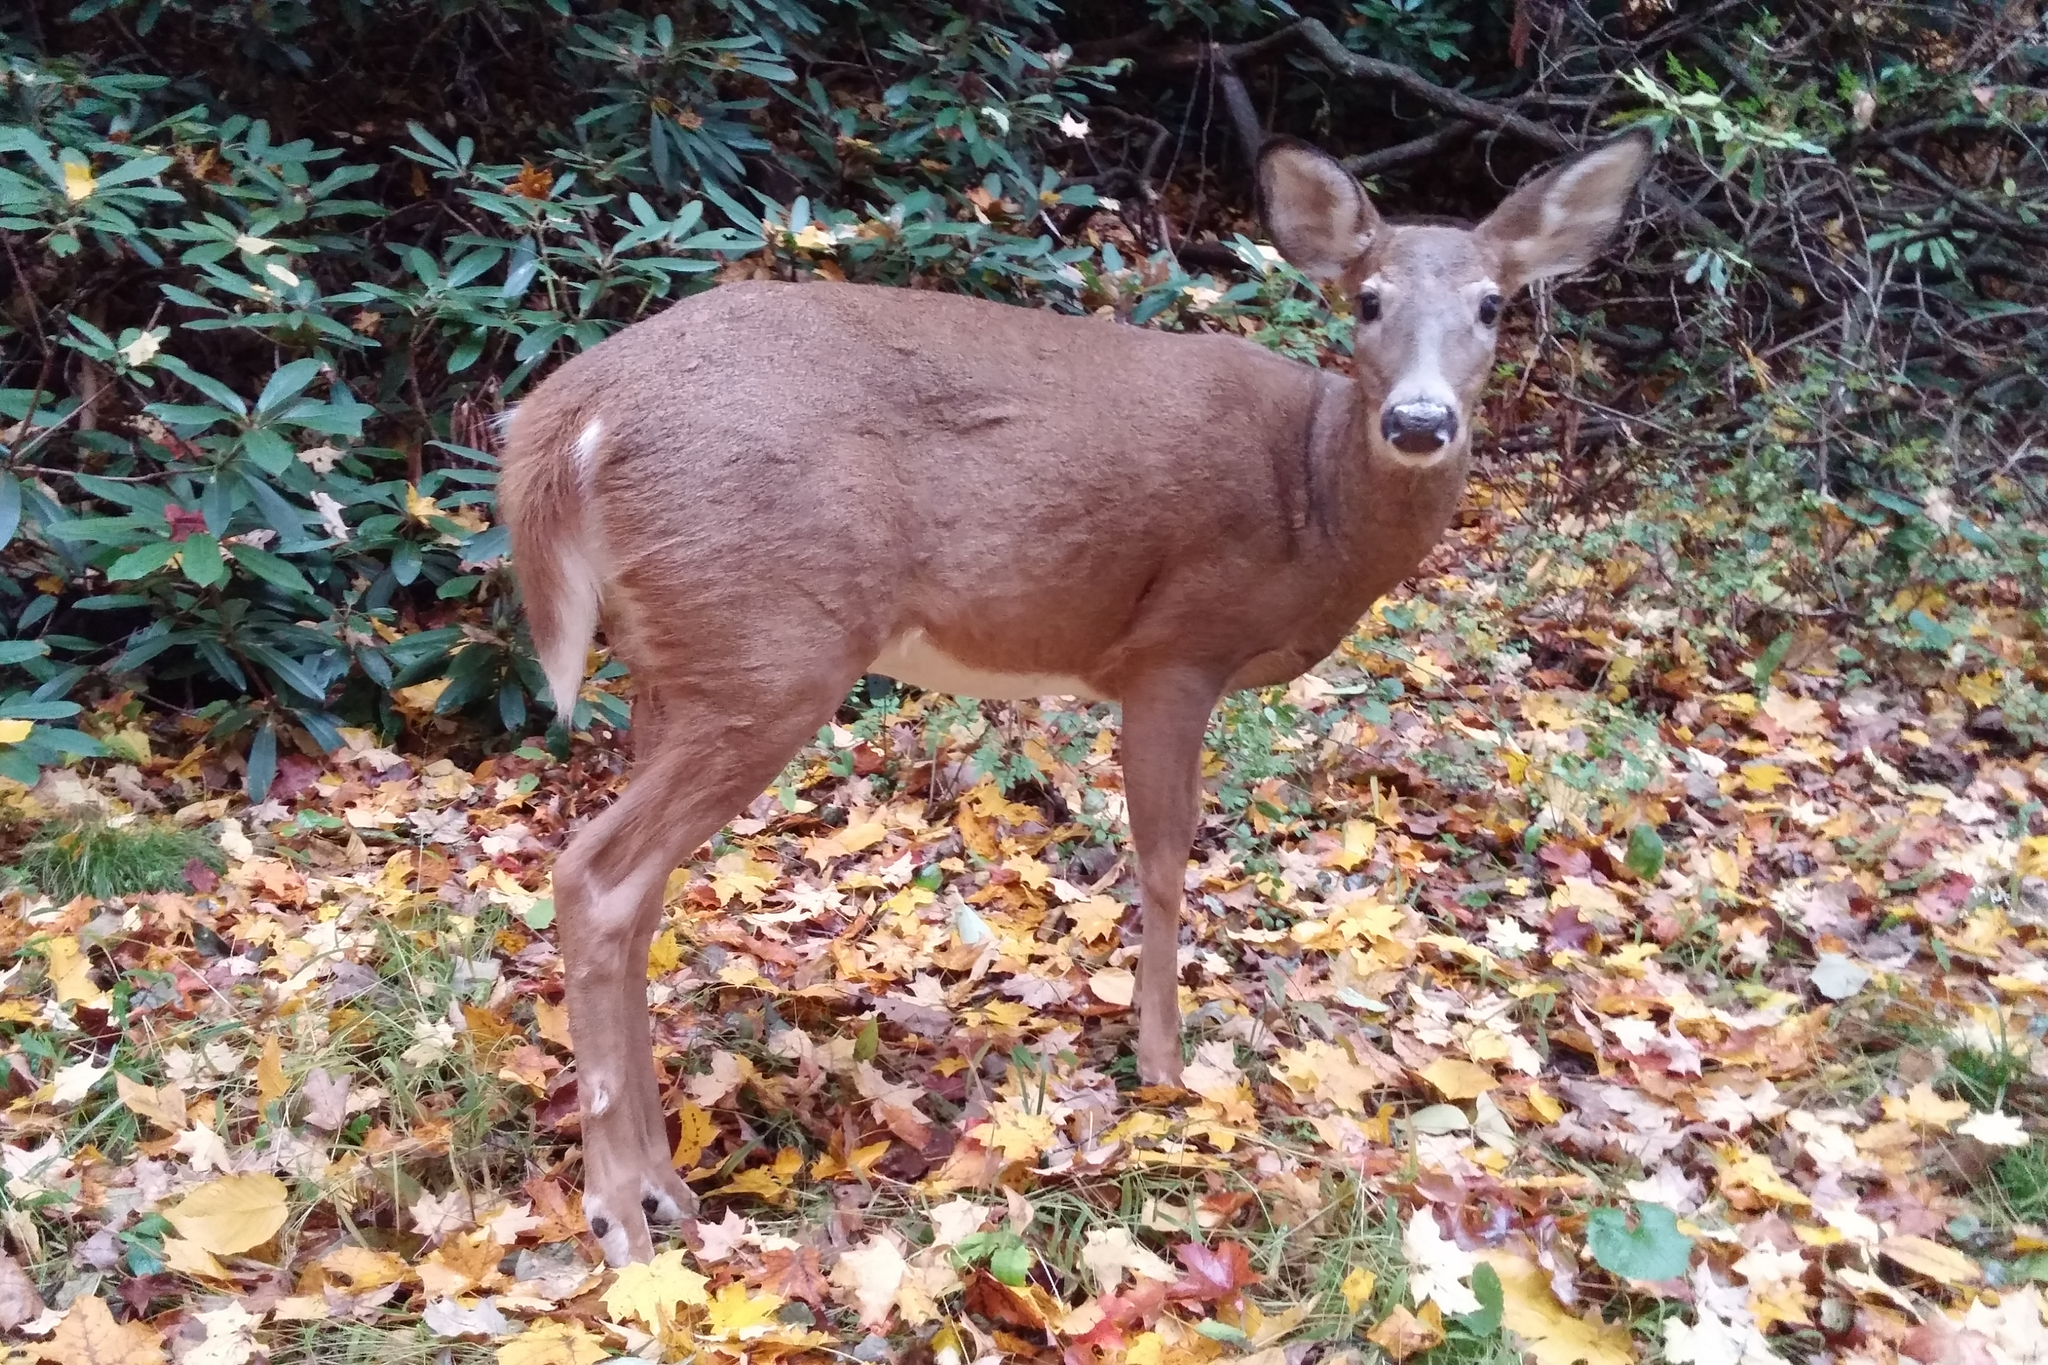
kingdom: Animalia
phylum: Chordata
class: Mammalia
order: Artiodactyla
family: Cervidae
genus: Odocoileus
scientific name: Odocoileus virginianus
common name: White-tailed deer
